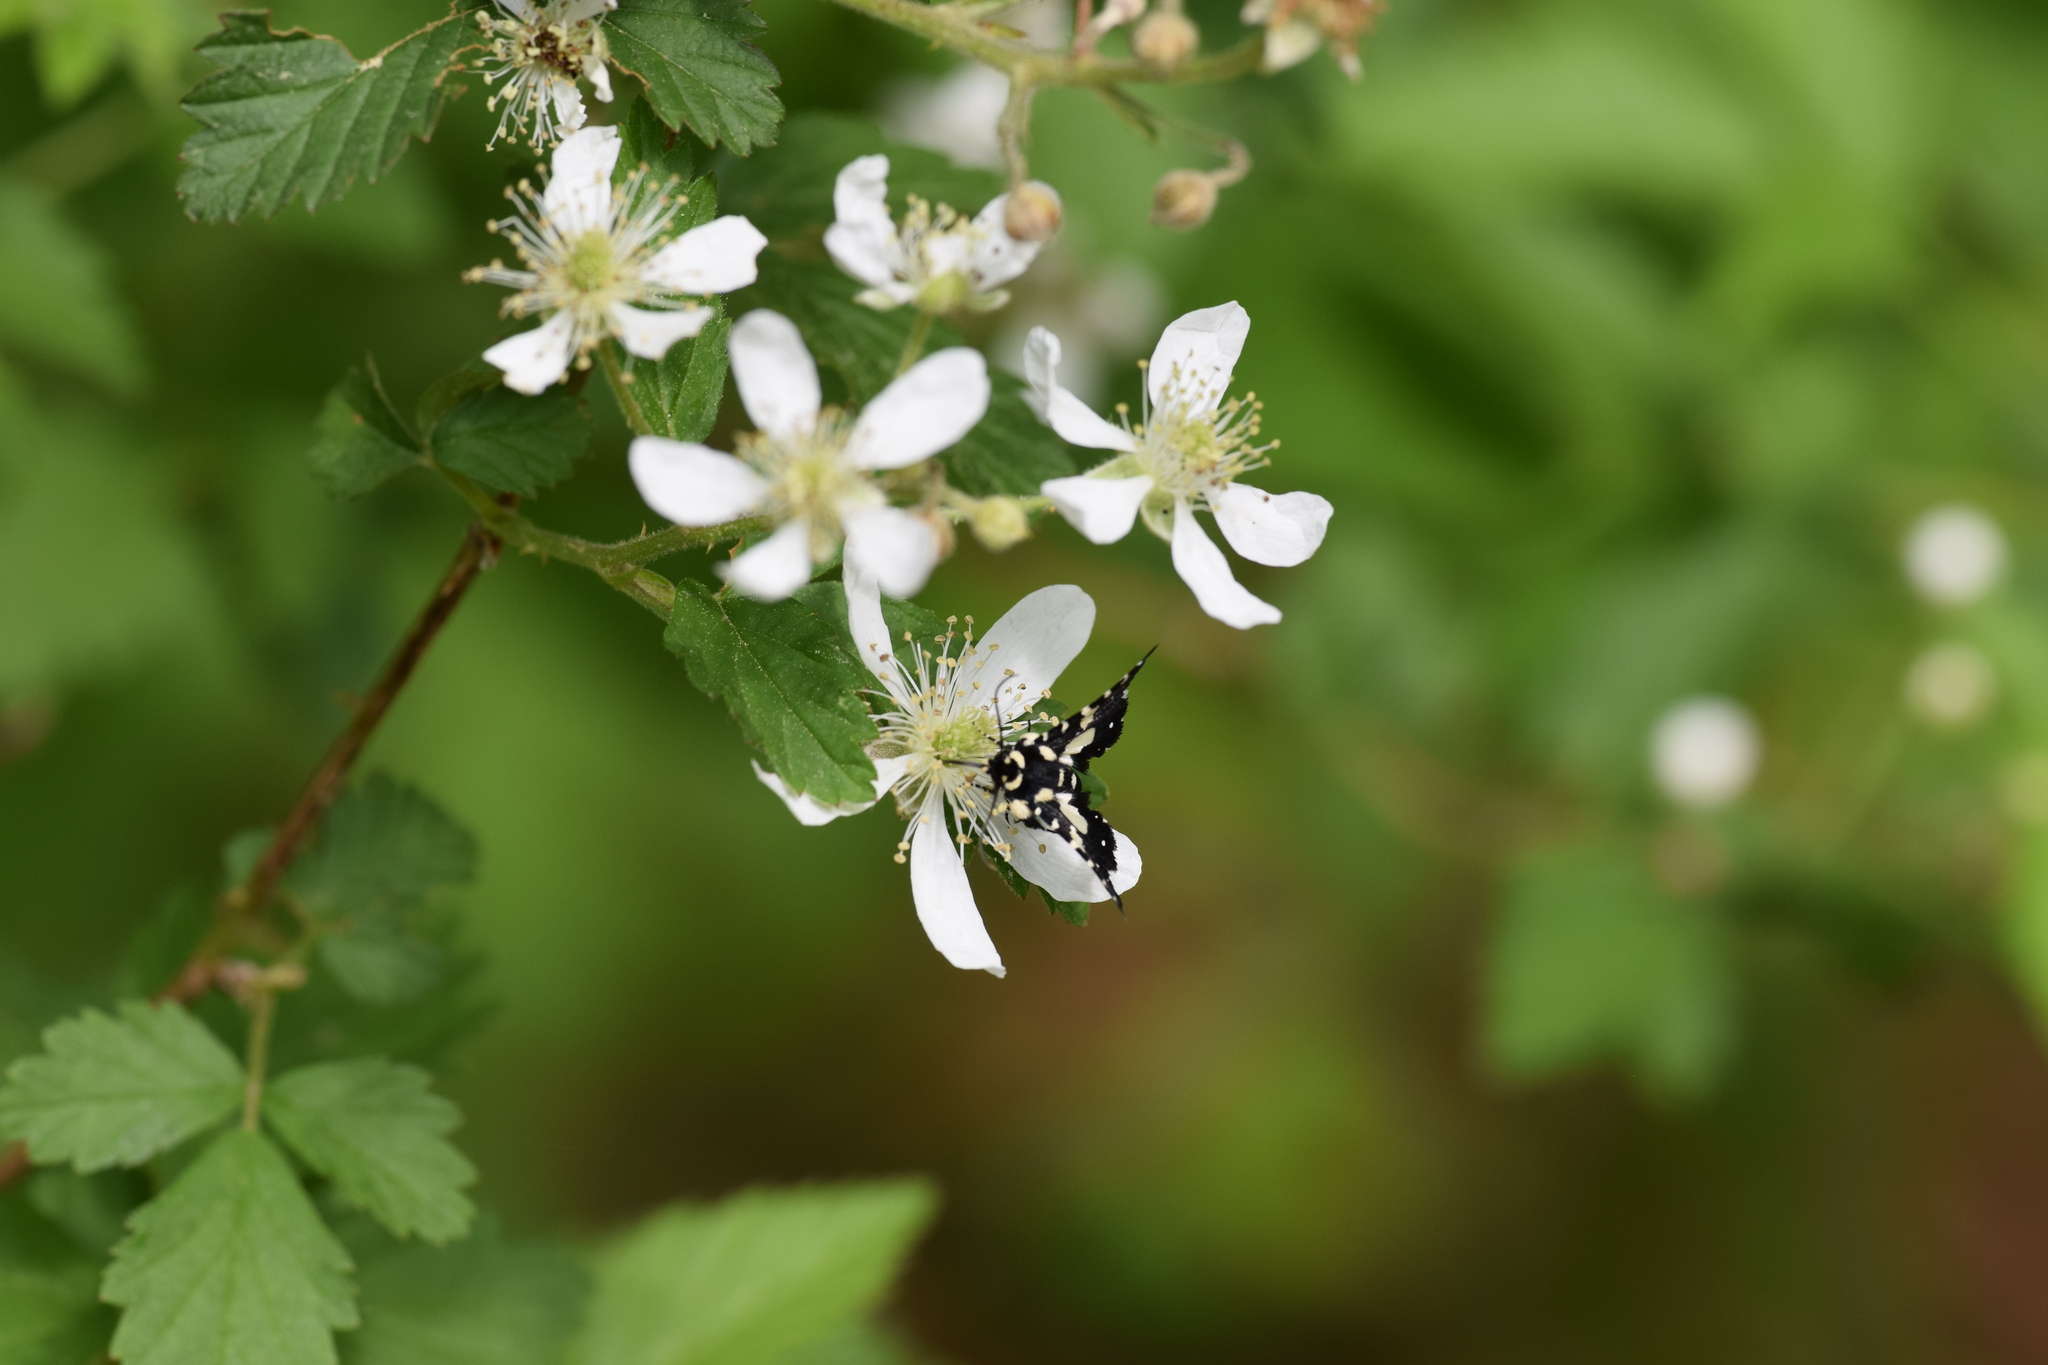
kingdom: Animalia
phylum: Arthropoda
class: Insecta
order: Lepidoptera
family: Thyrididae
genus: Pseudothyris
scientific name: Pseudothyris sepulchralis
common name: Mournful thyris moth
